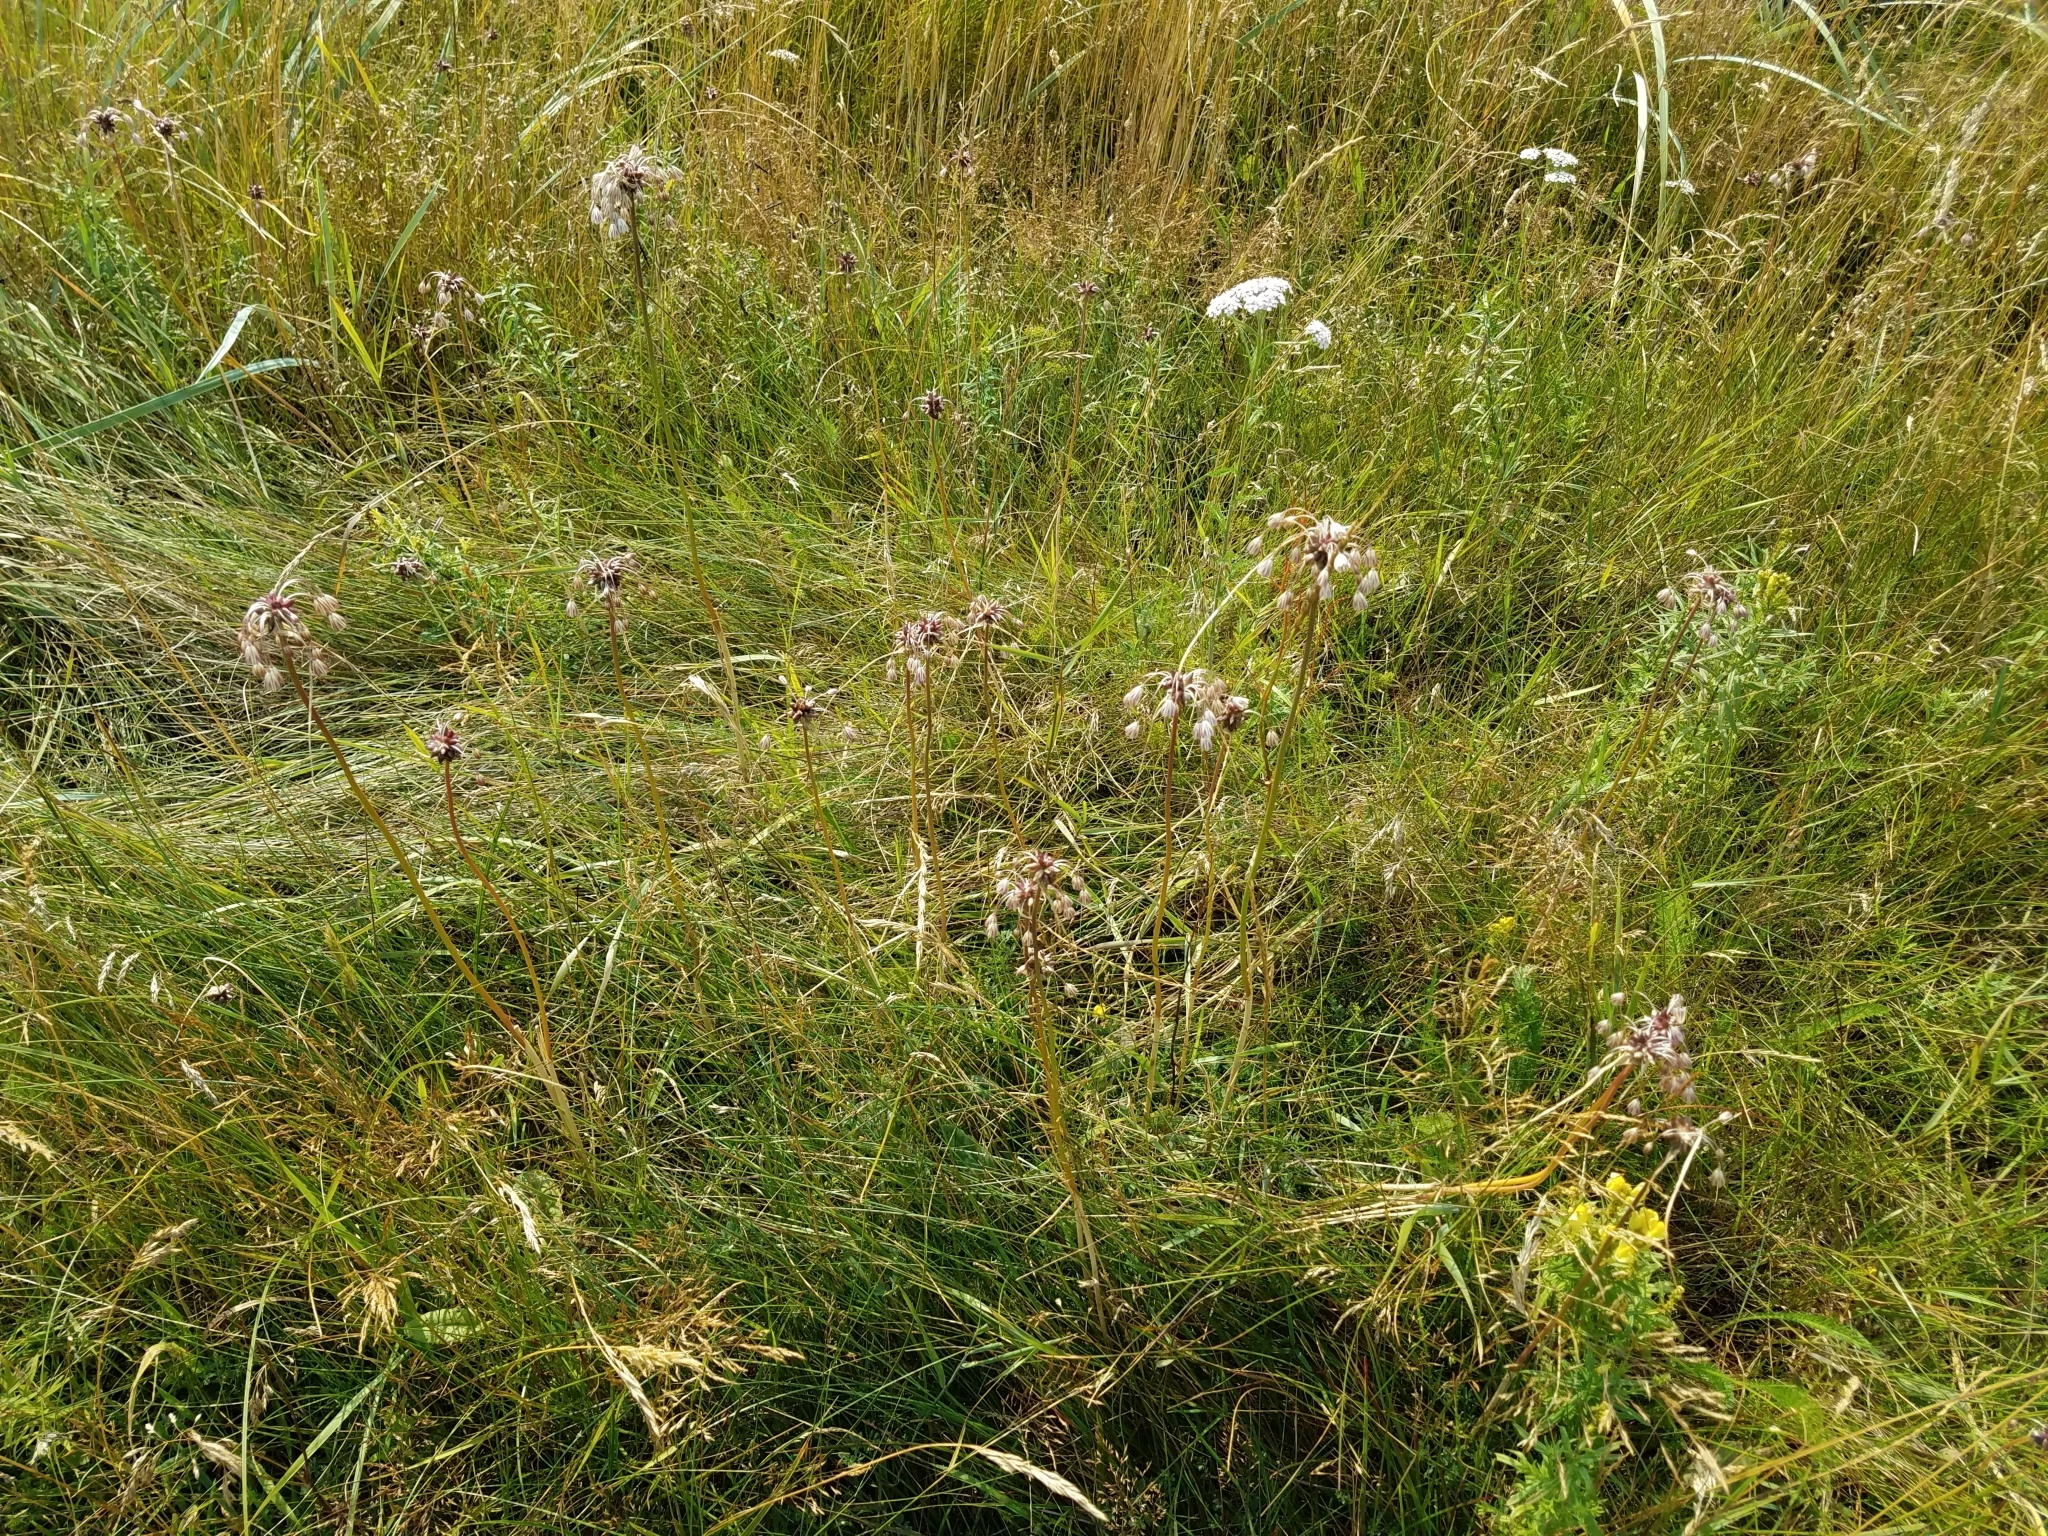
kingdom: Plantae
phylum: Tracheophyta
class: Liliopsida
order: Asparagales
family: Amaryllidaceae
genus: Allium
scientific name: Allium oleraceum
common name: Field garlic
